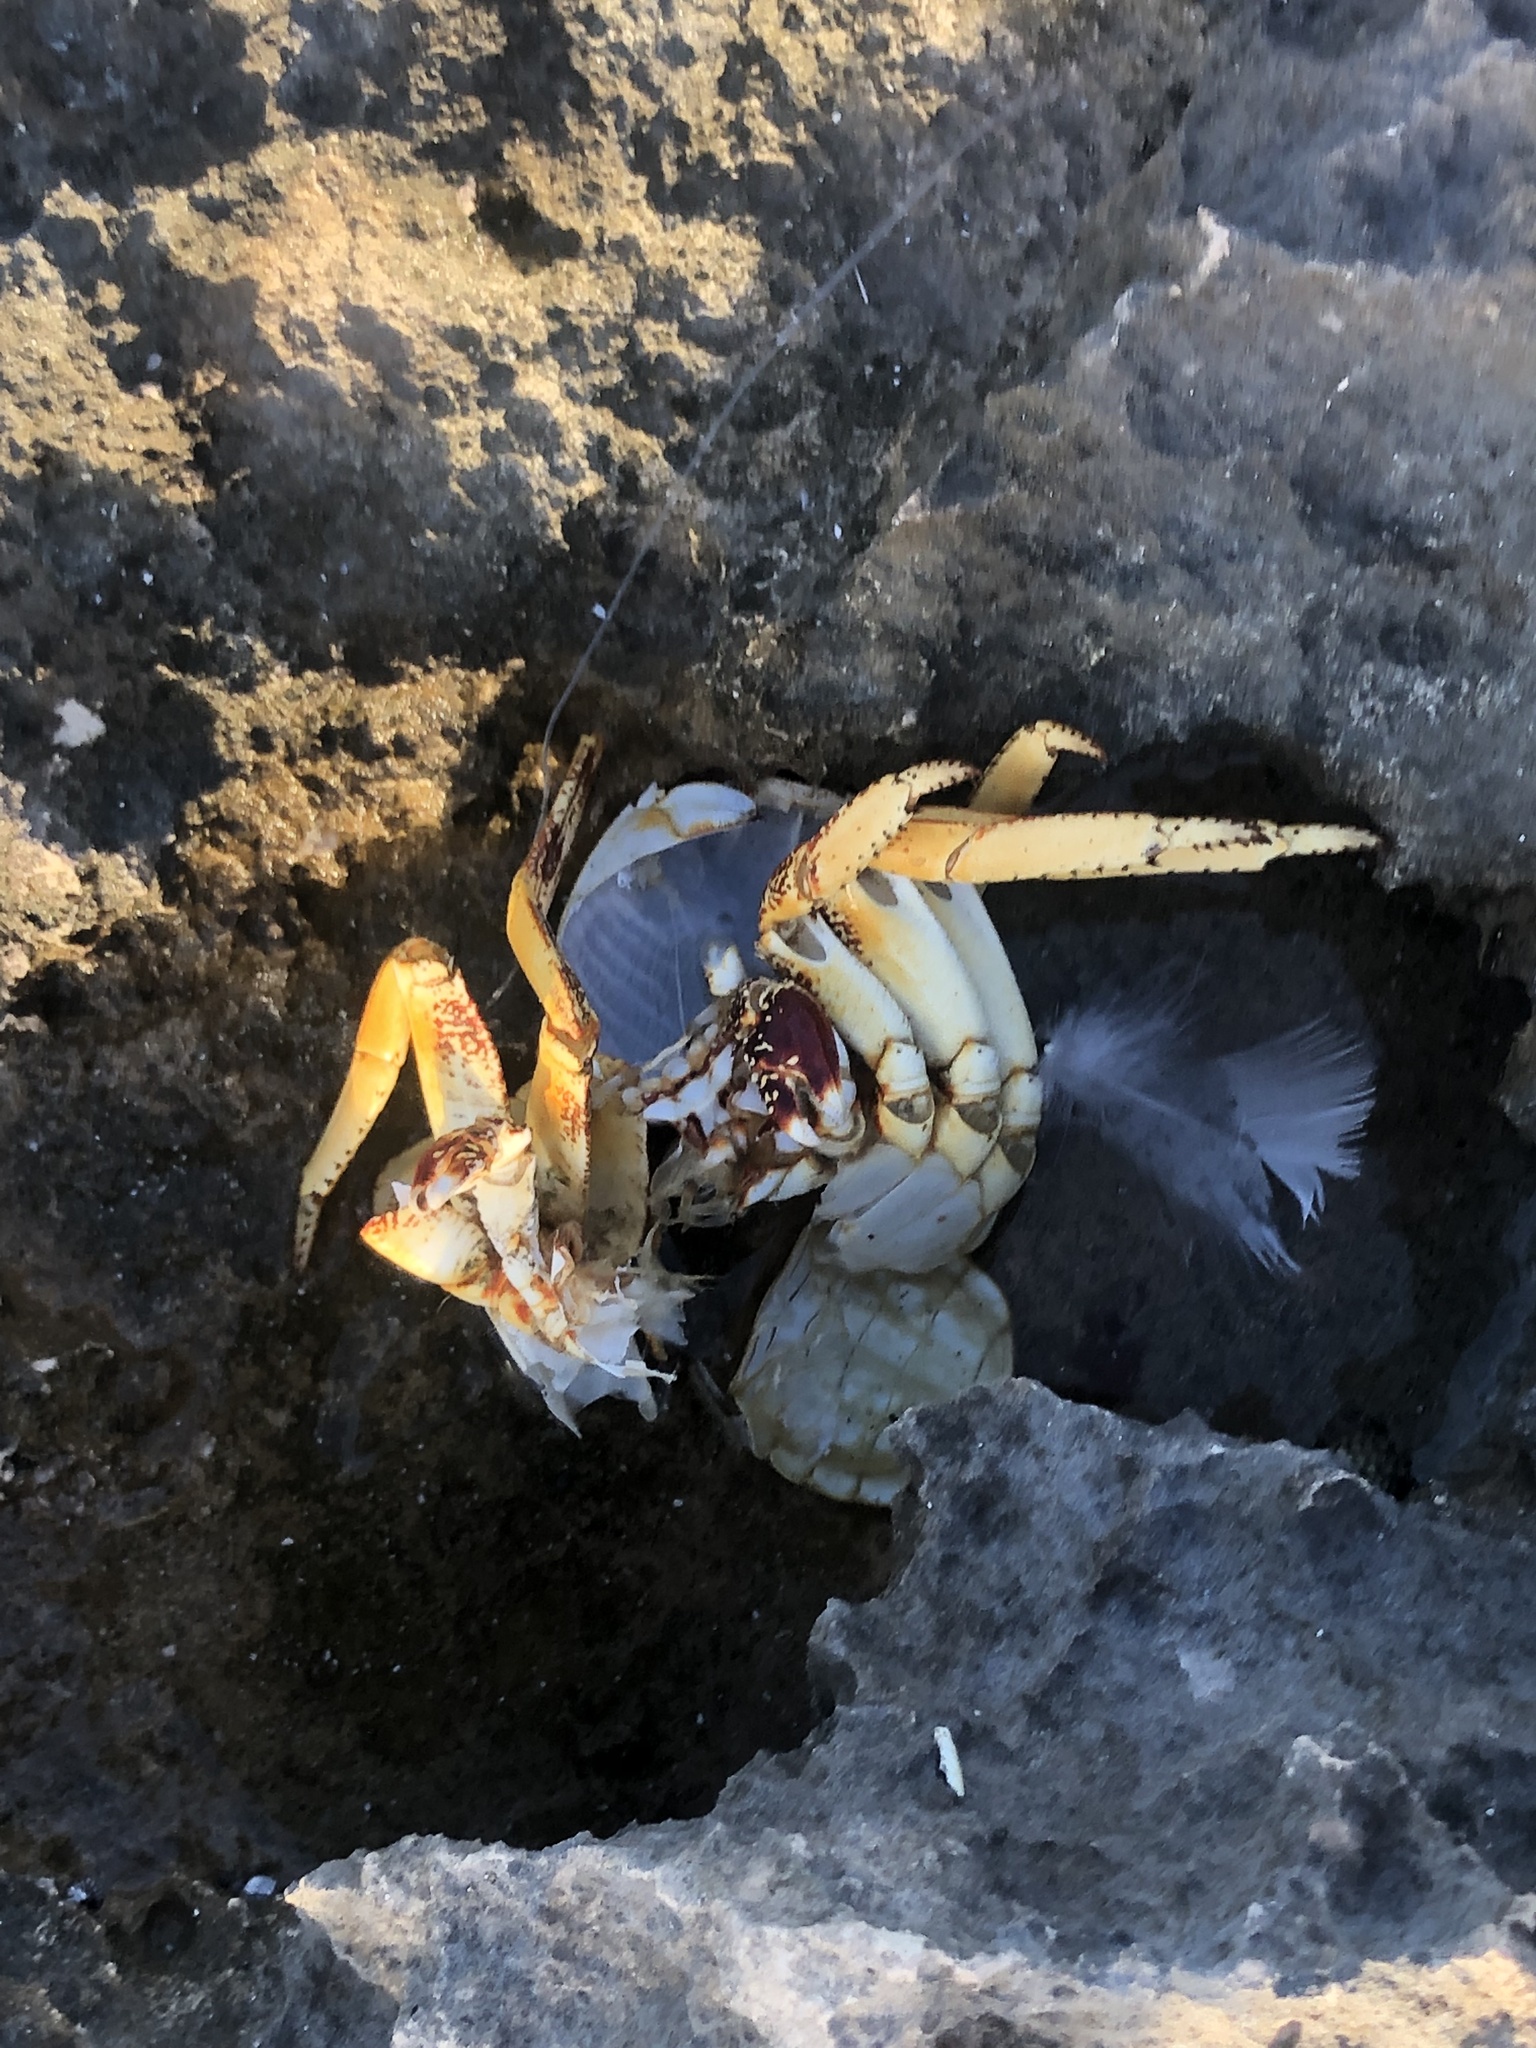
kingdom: Animalia
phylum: Arthropoda
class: Malacostraca
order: Decapoda
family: Grapsidae
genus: Grapsus
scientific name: Grapsus grapsus
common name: Sally lightfoot
